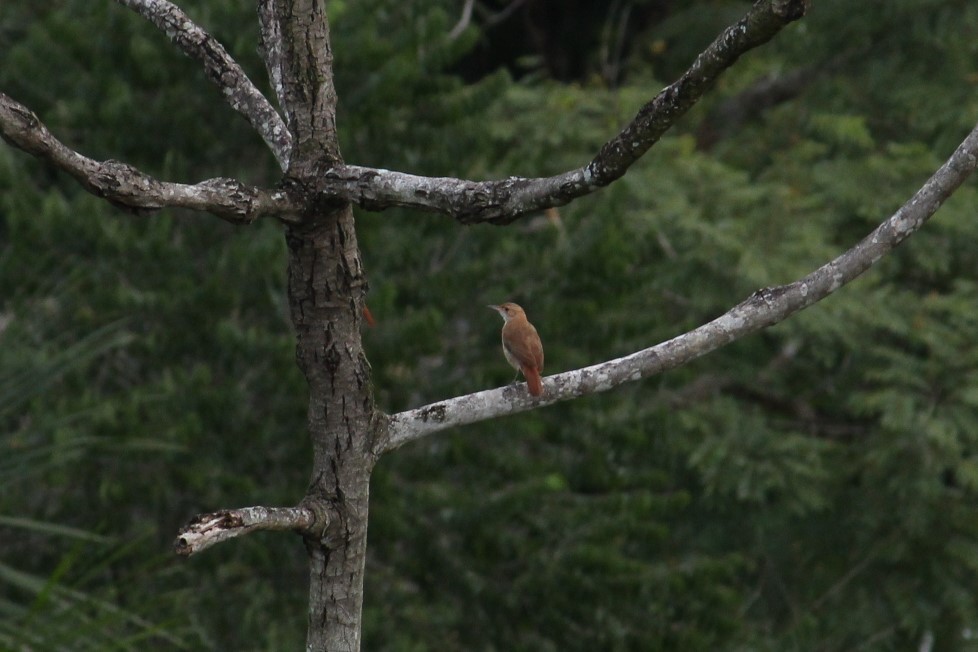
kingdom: Animalia
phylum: Chordata
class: Aves
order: Passeriformes
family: Furnariidae
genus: Furnarius
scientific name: Furnarius rufus
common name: Rufous hornero
